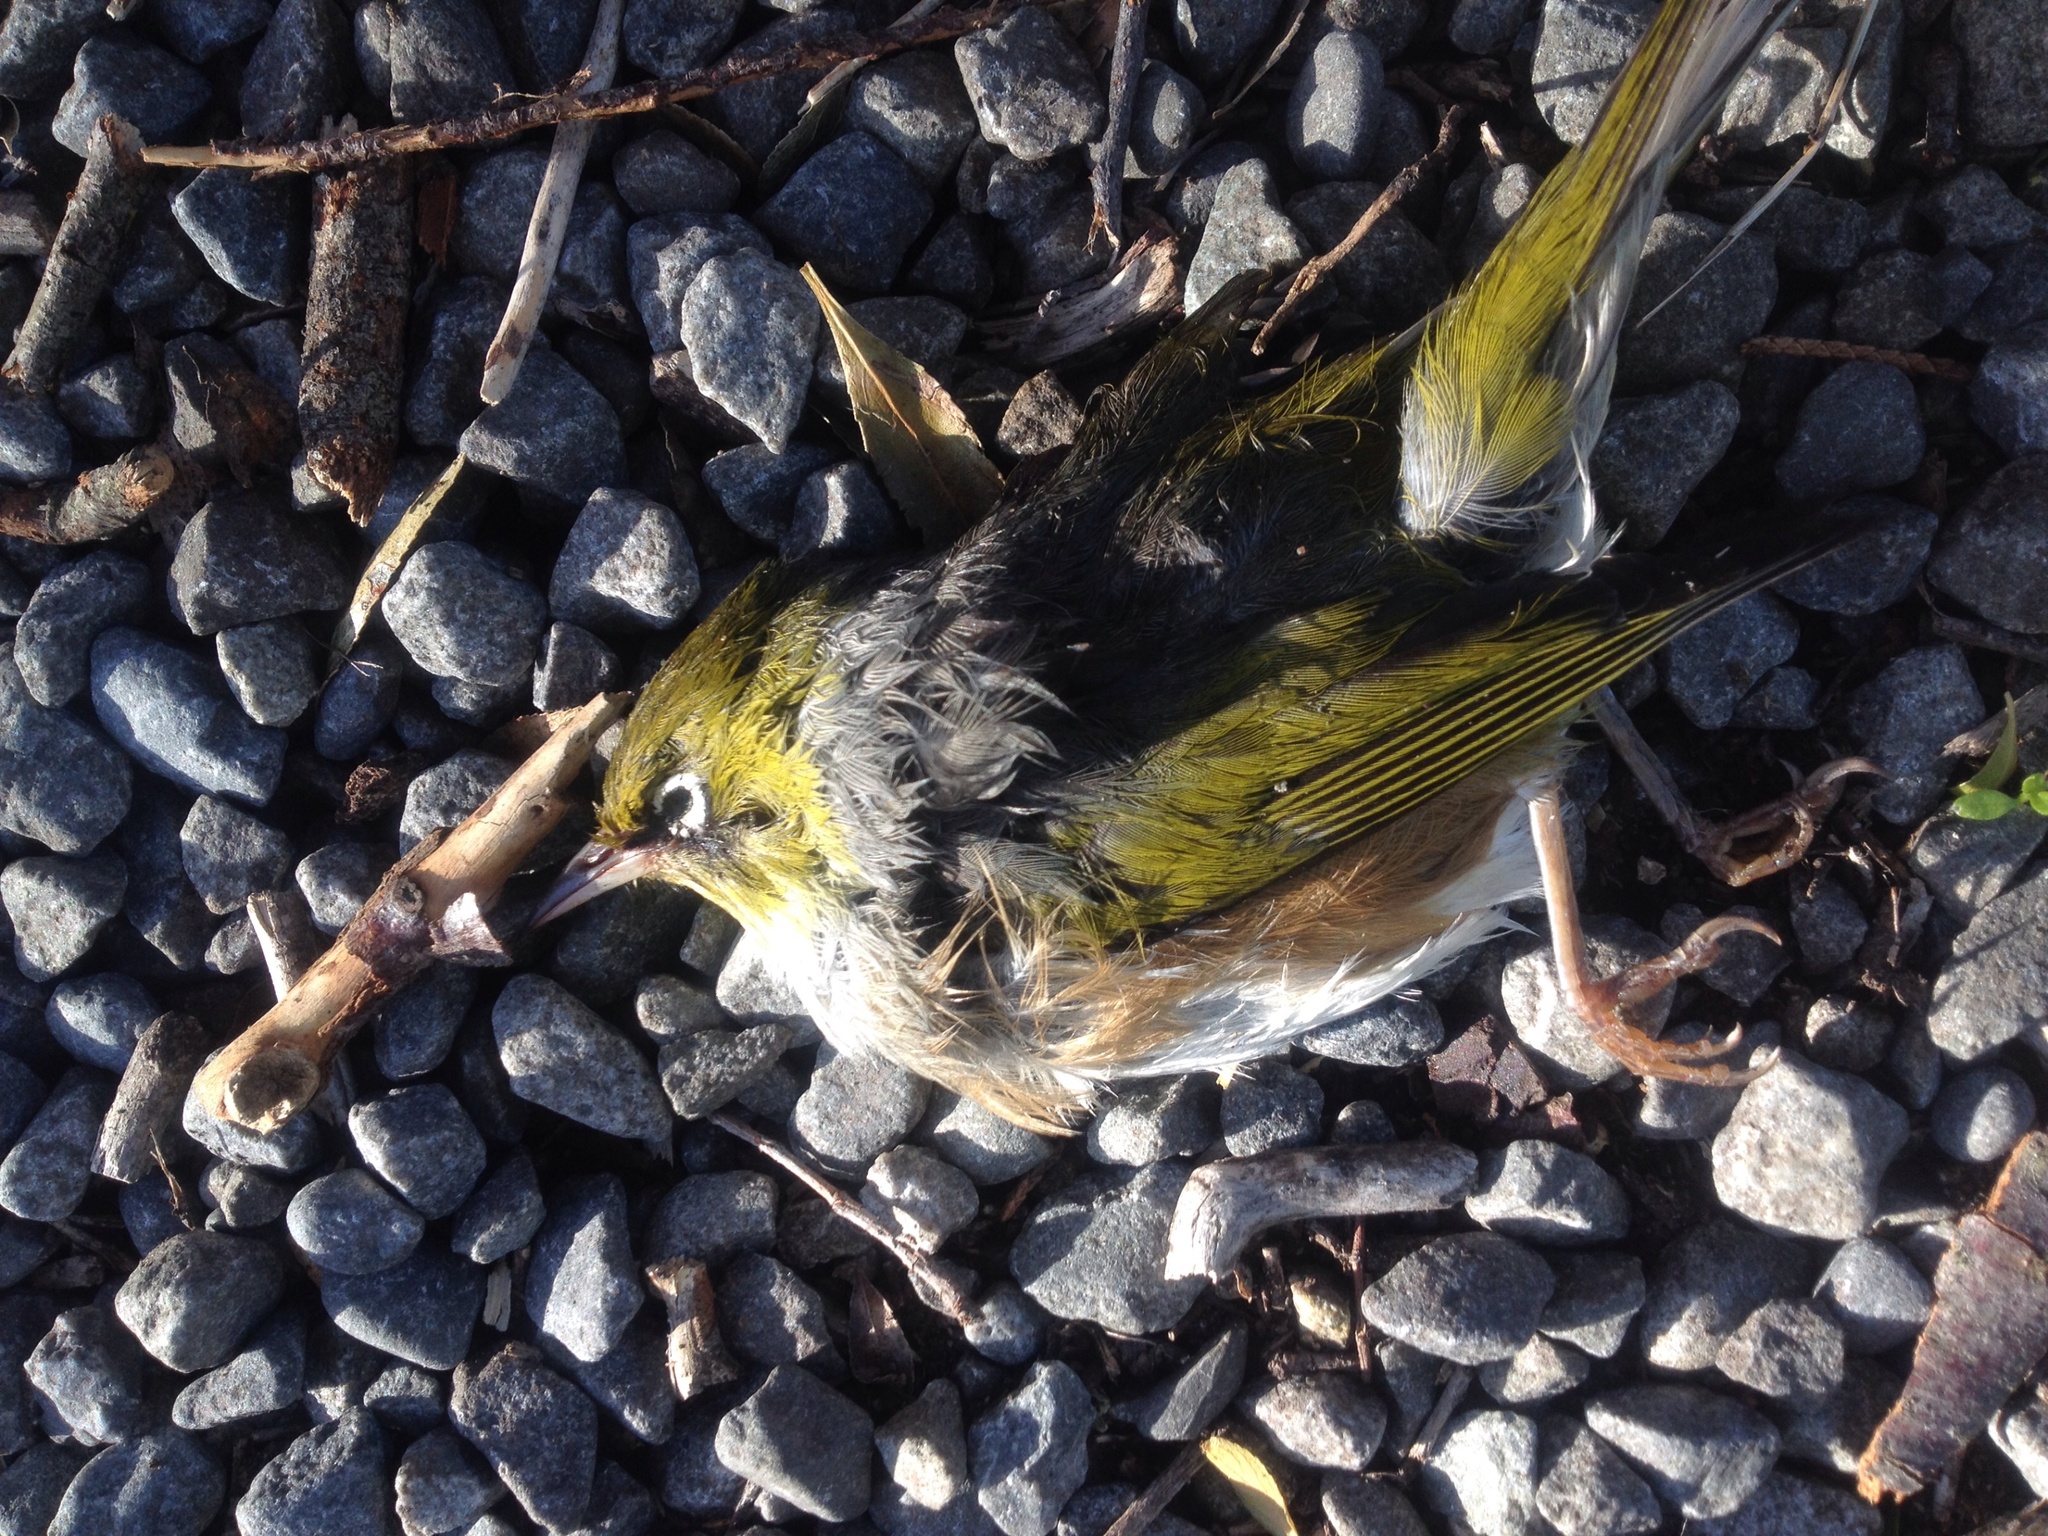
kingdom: Animalia
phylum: Chordata
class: Aves
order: Passeriformes
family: Zosteropidae
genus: Zosterops
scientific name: Zosterops lateralis
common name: Silvereye
